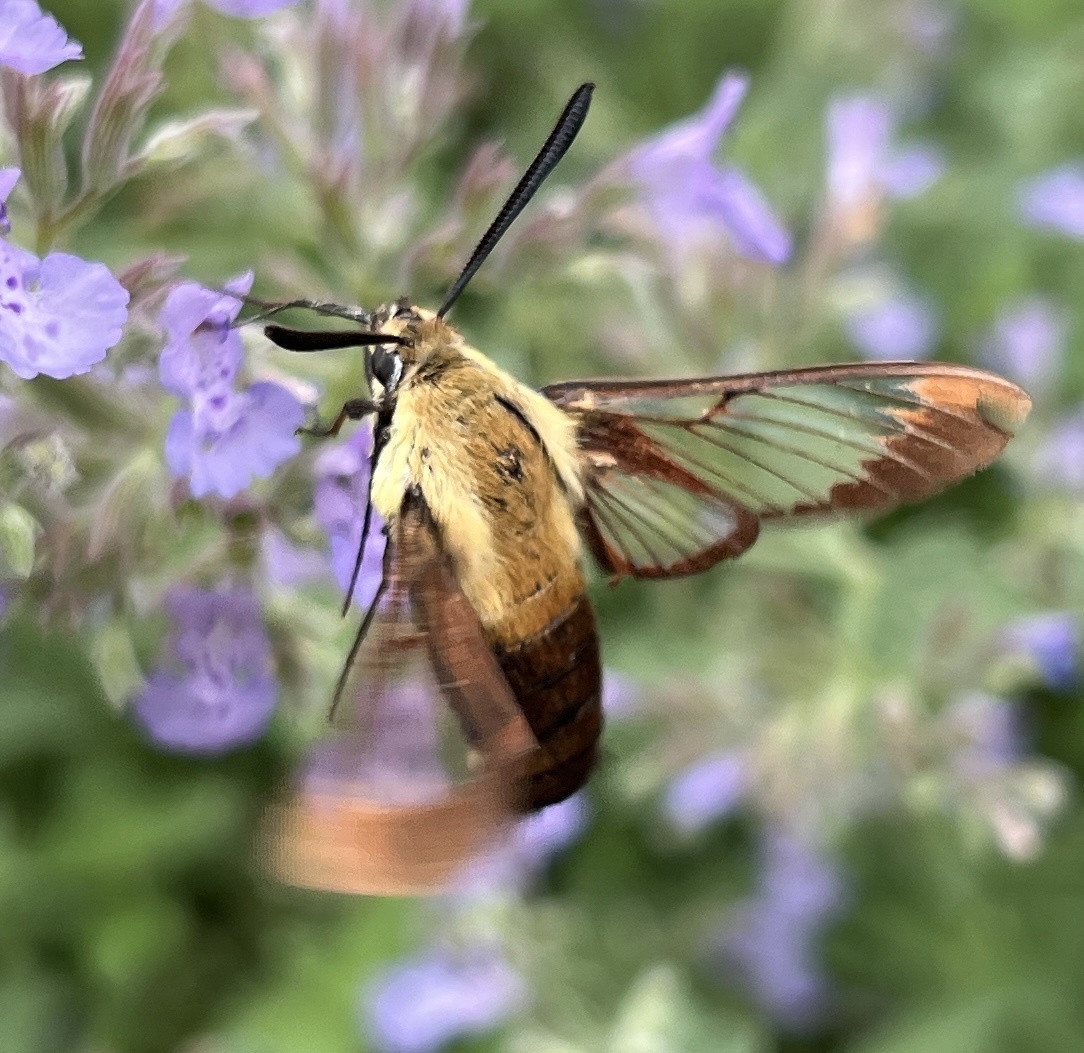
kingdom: Animalia
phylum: Arthropoda
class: Insecta
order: Lepidoptera
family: Sphingidae
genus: Hemaris
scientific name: Hemaris diffinis
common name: Bumblebee moth
